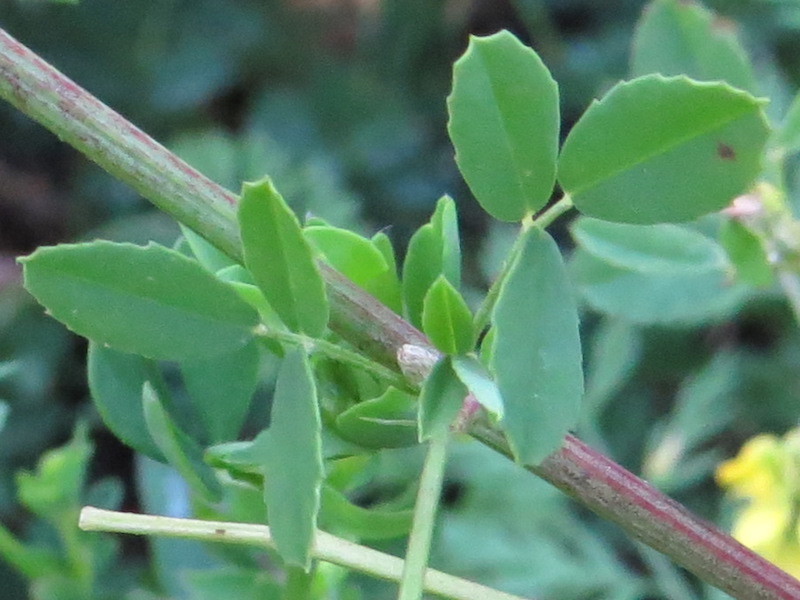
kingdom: Plantae
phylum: Tracheophyta
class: Magnoliopsida
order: Fabales
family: Fabaceae
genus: Melilotus
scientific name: Melilotus officinalis
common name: Sweetclover
